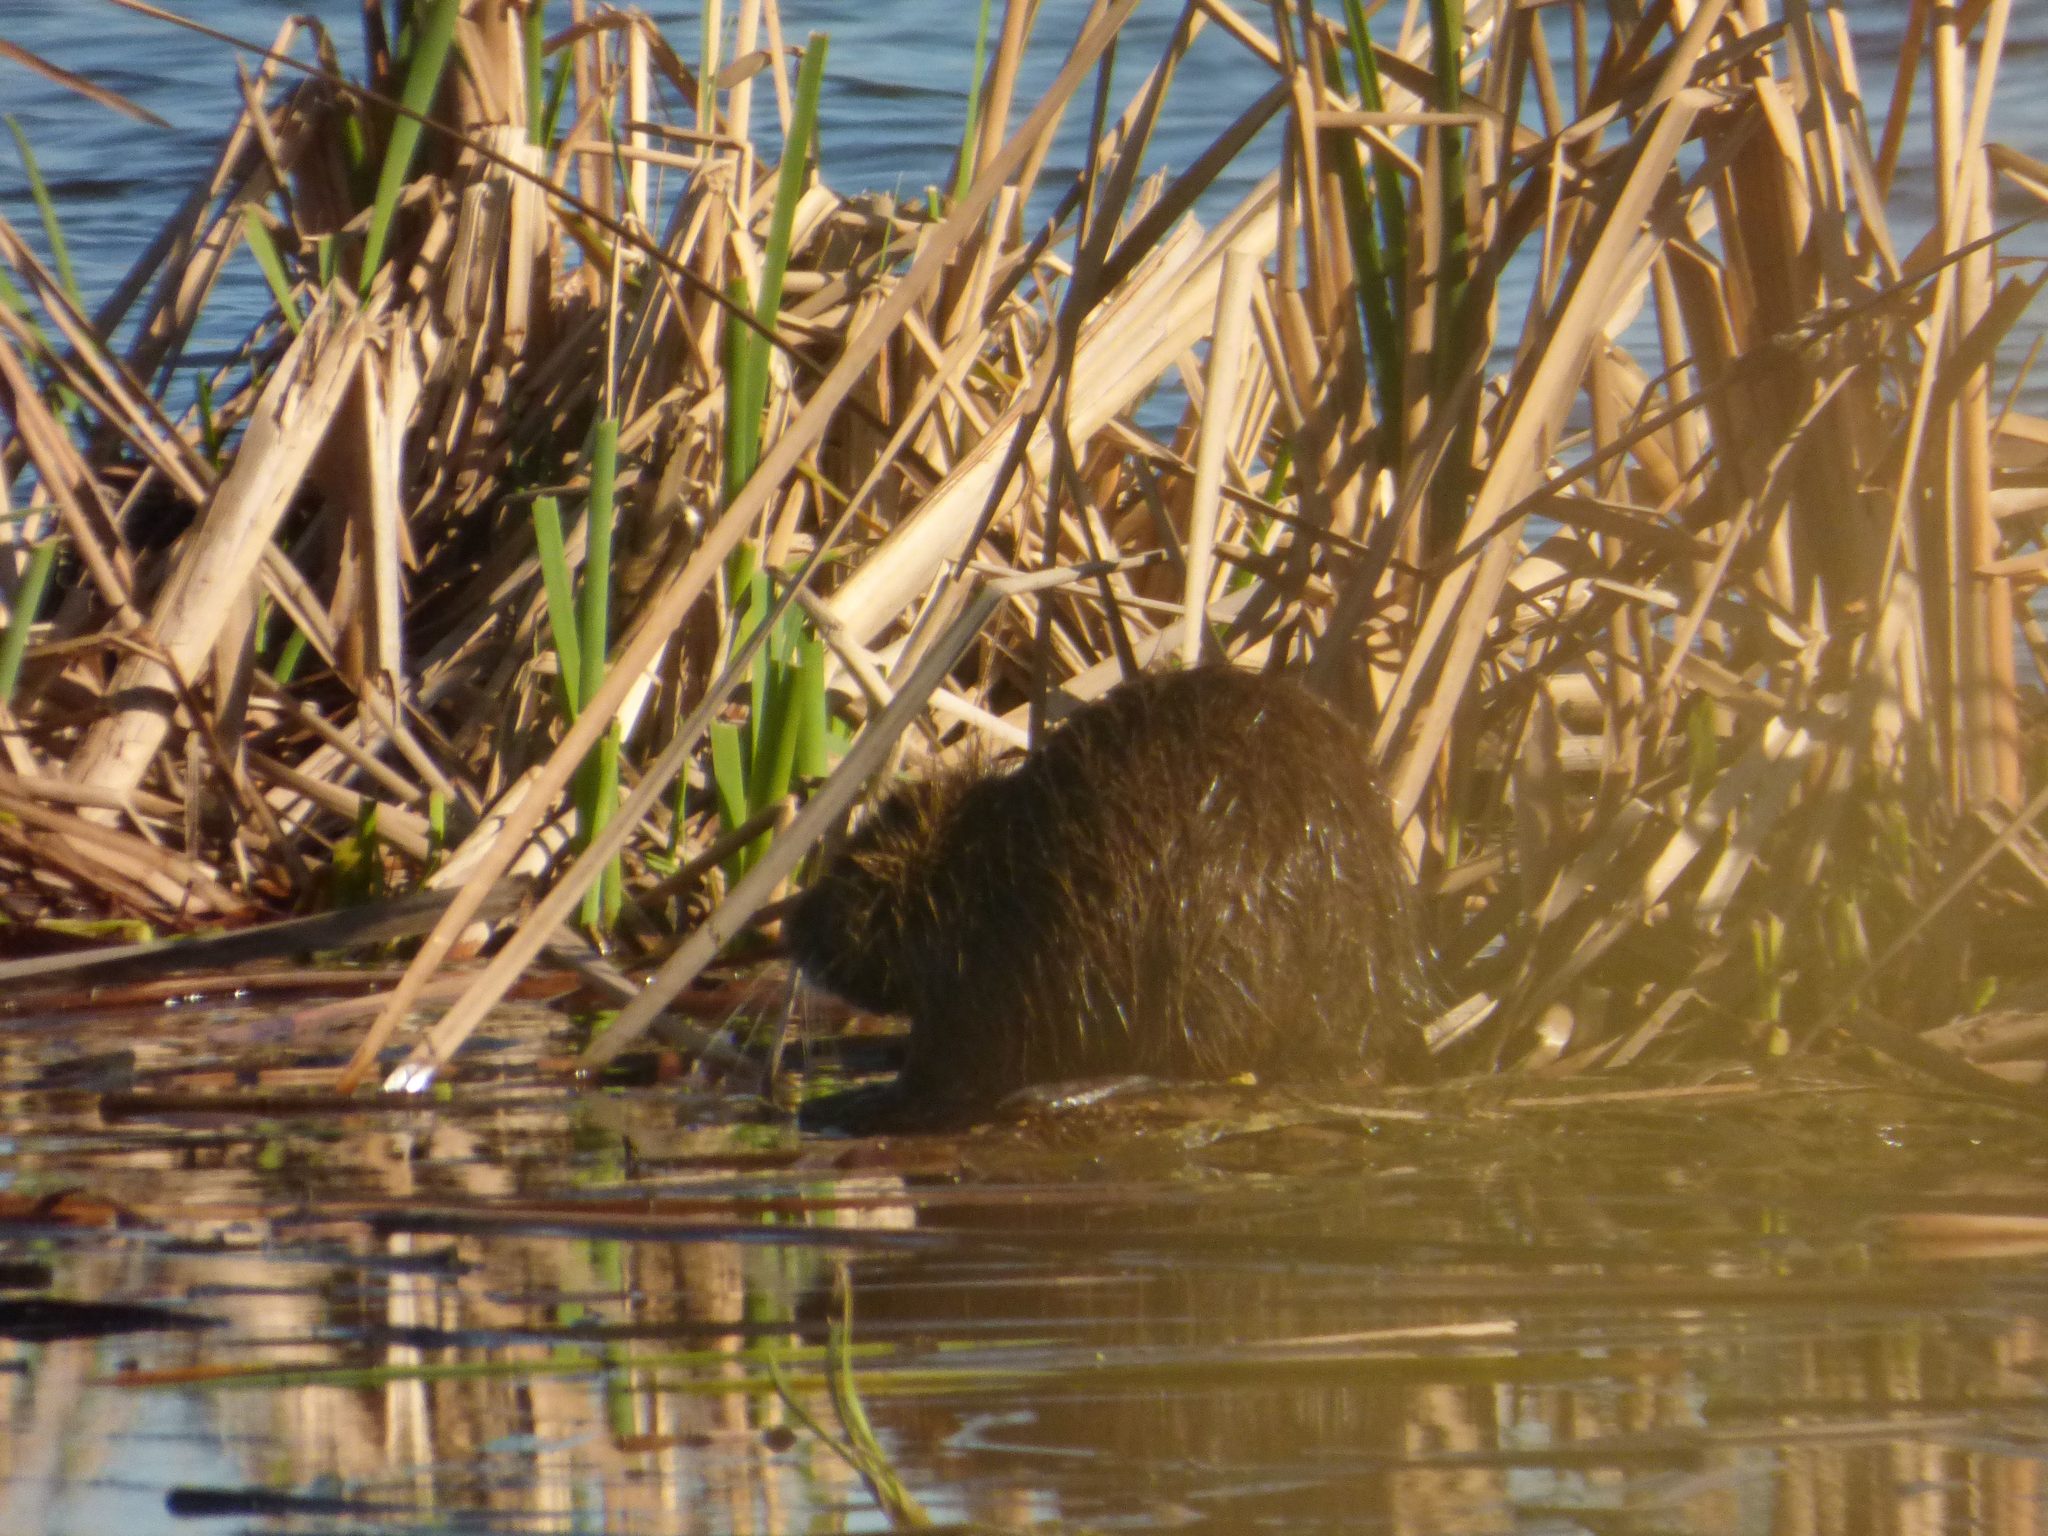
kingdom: Animalia
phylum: Chordata
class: Mammalia
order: Rodentia
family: Myocastoridae
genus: Myocastor
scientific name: Myocastor coypus
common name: Coypu
